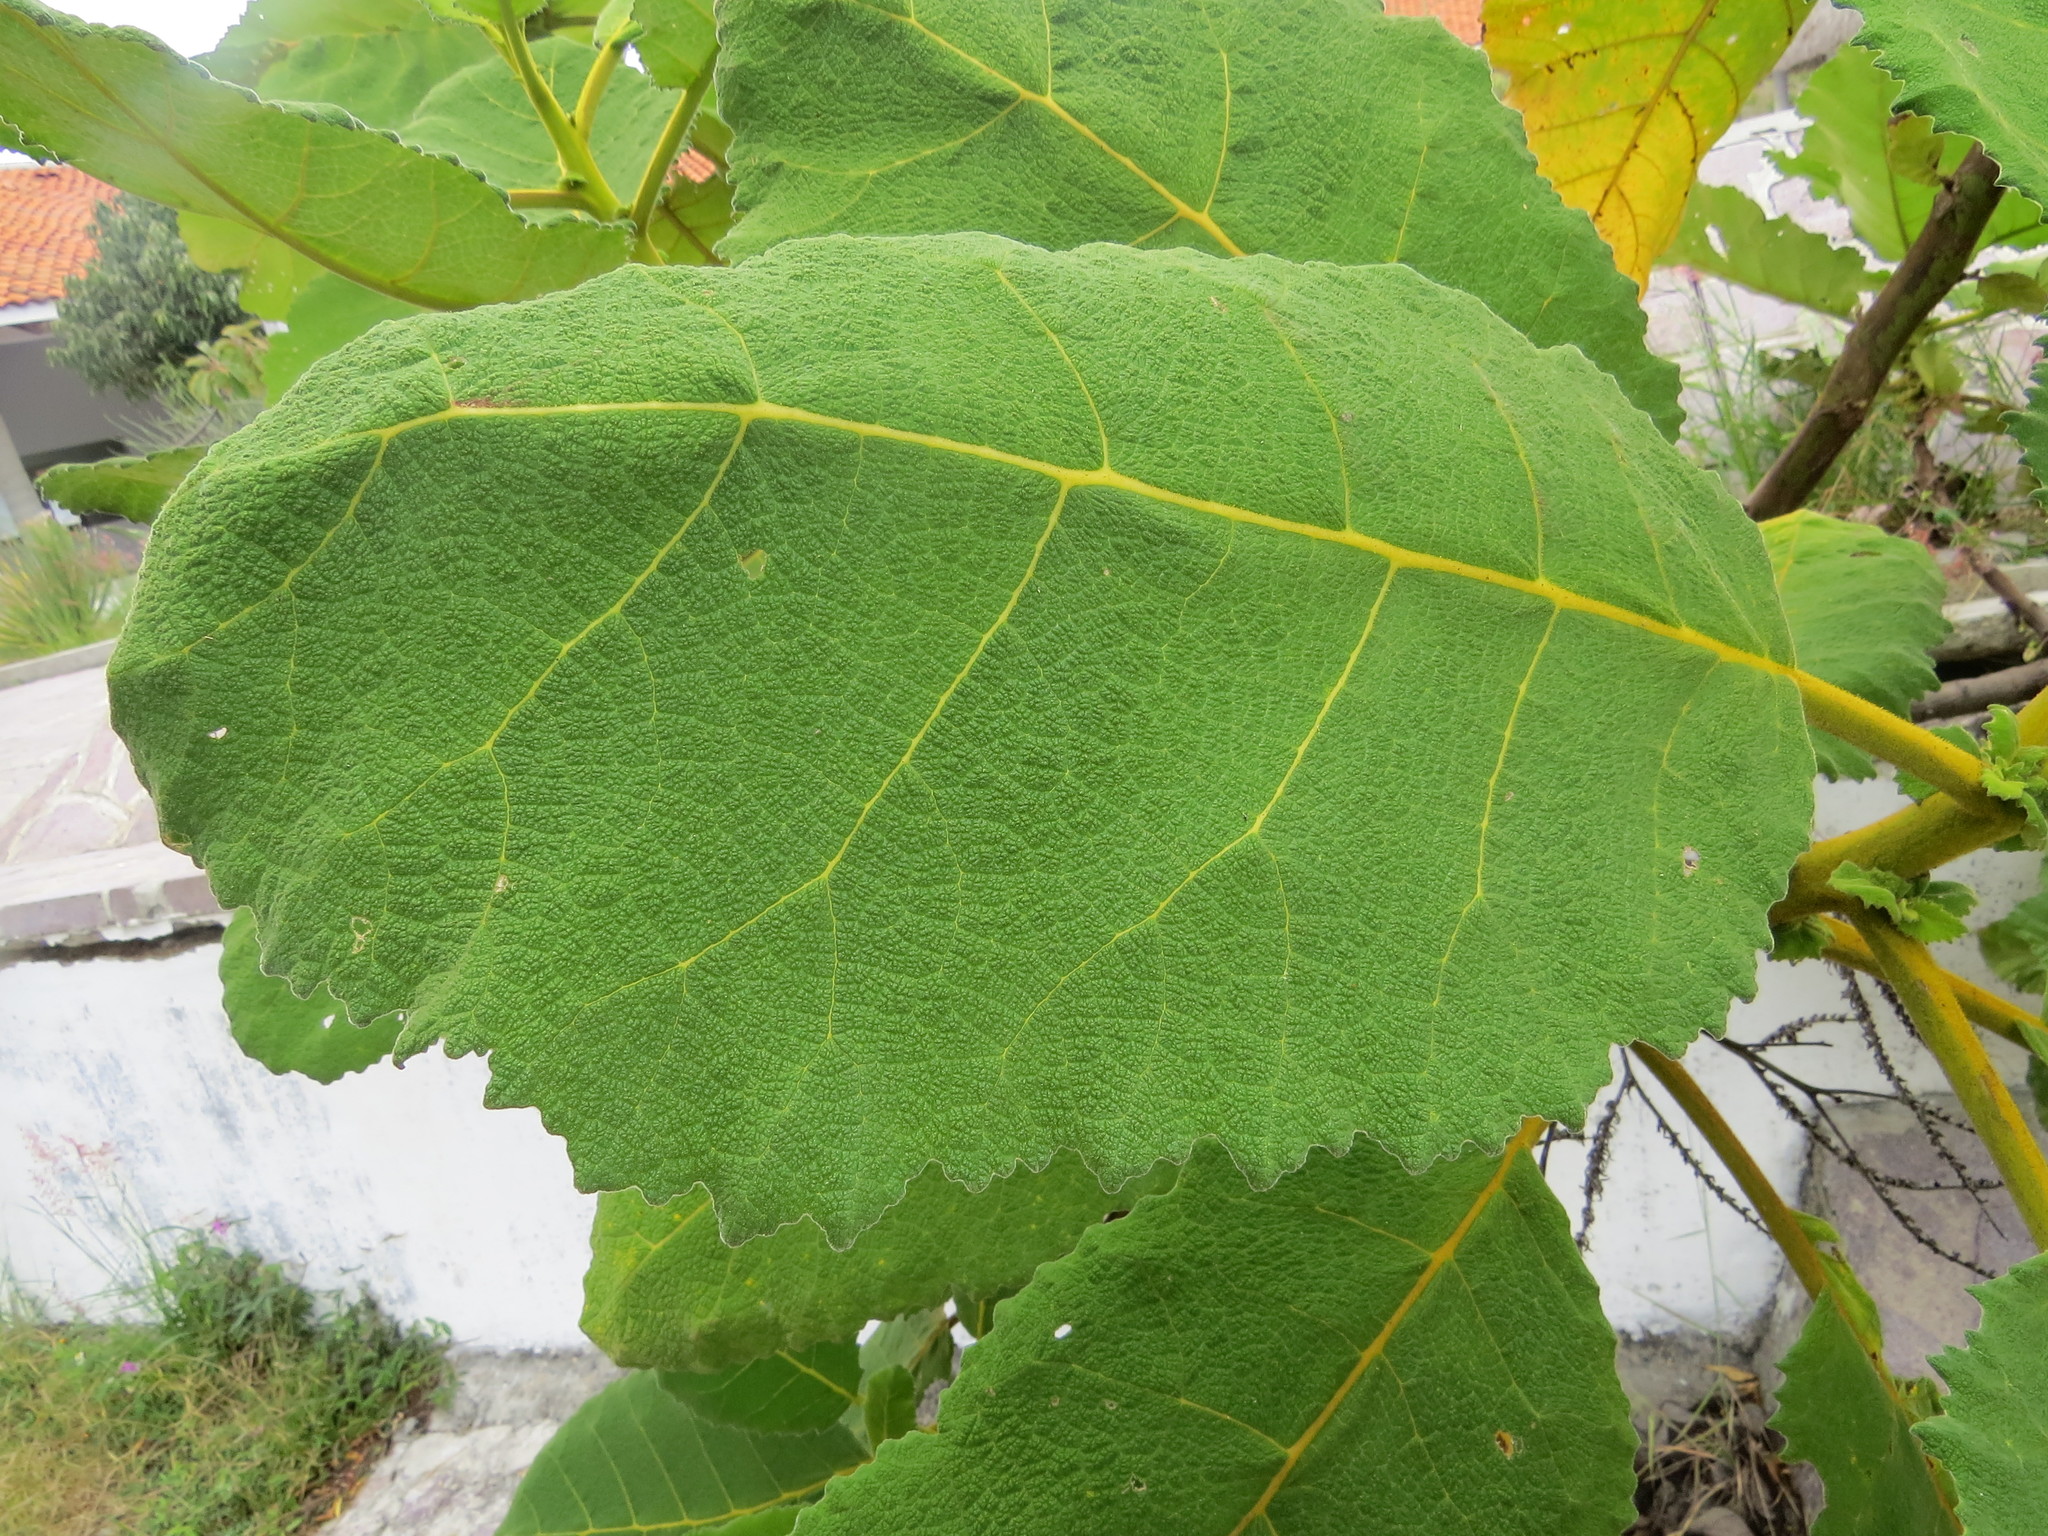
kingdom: Plantae
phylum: Tracheophyta
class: Magnoliopsida
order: Boraginales
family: Namaceae
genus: Wigandia
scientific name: Wigandia urens
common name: Caracus wigandia
